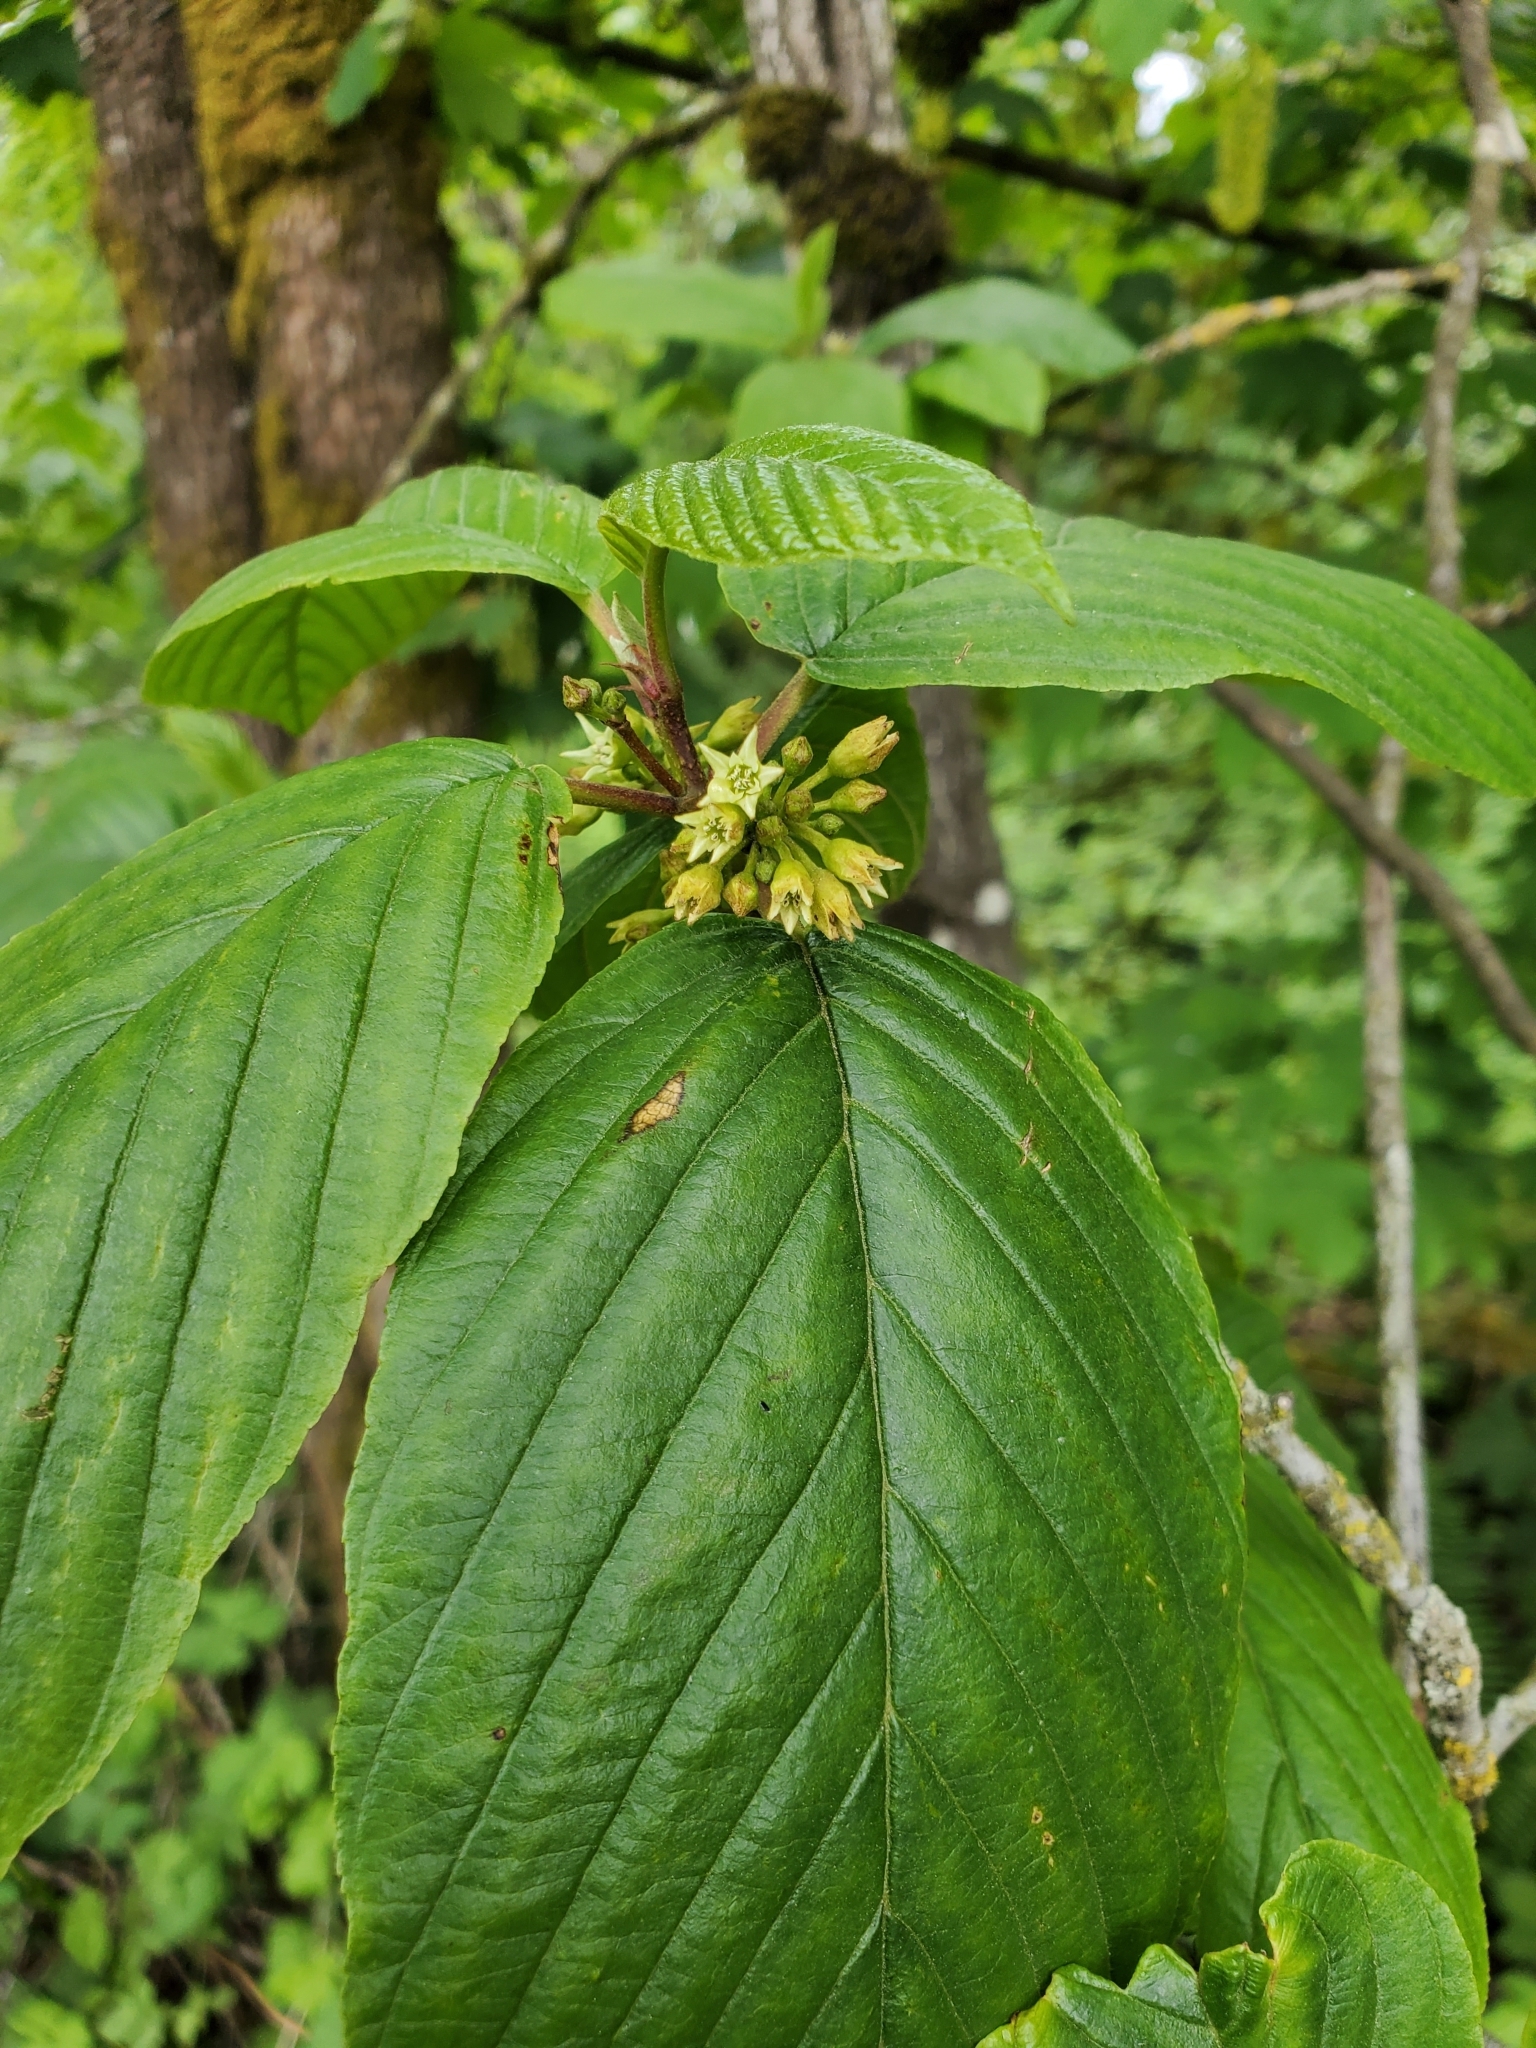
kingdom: Plantae
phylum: Tracheophyta
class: Magnoliopsida
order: Rosales
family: Rhamnaceae
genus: Frangula
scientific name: Frangula purshiana
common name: Cascara buckthorn
